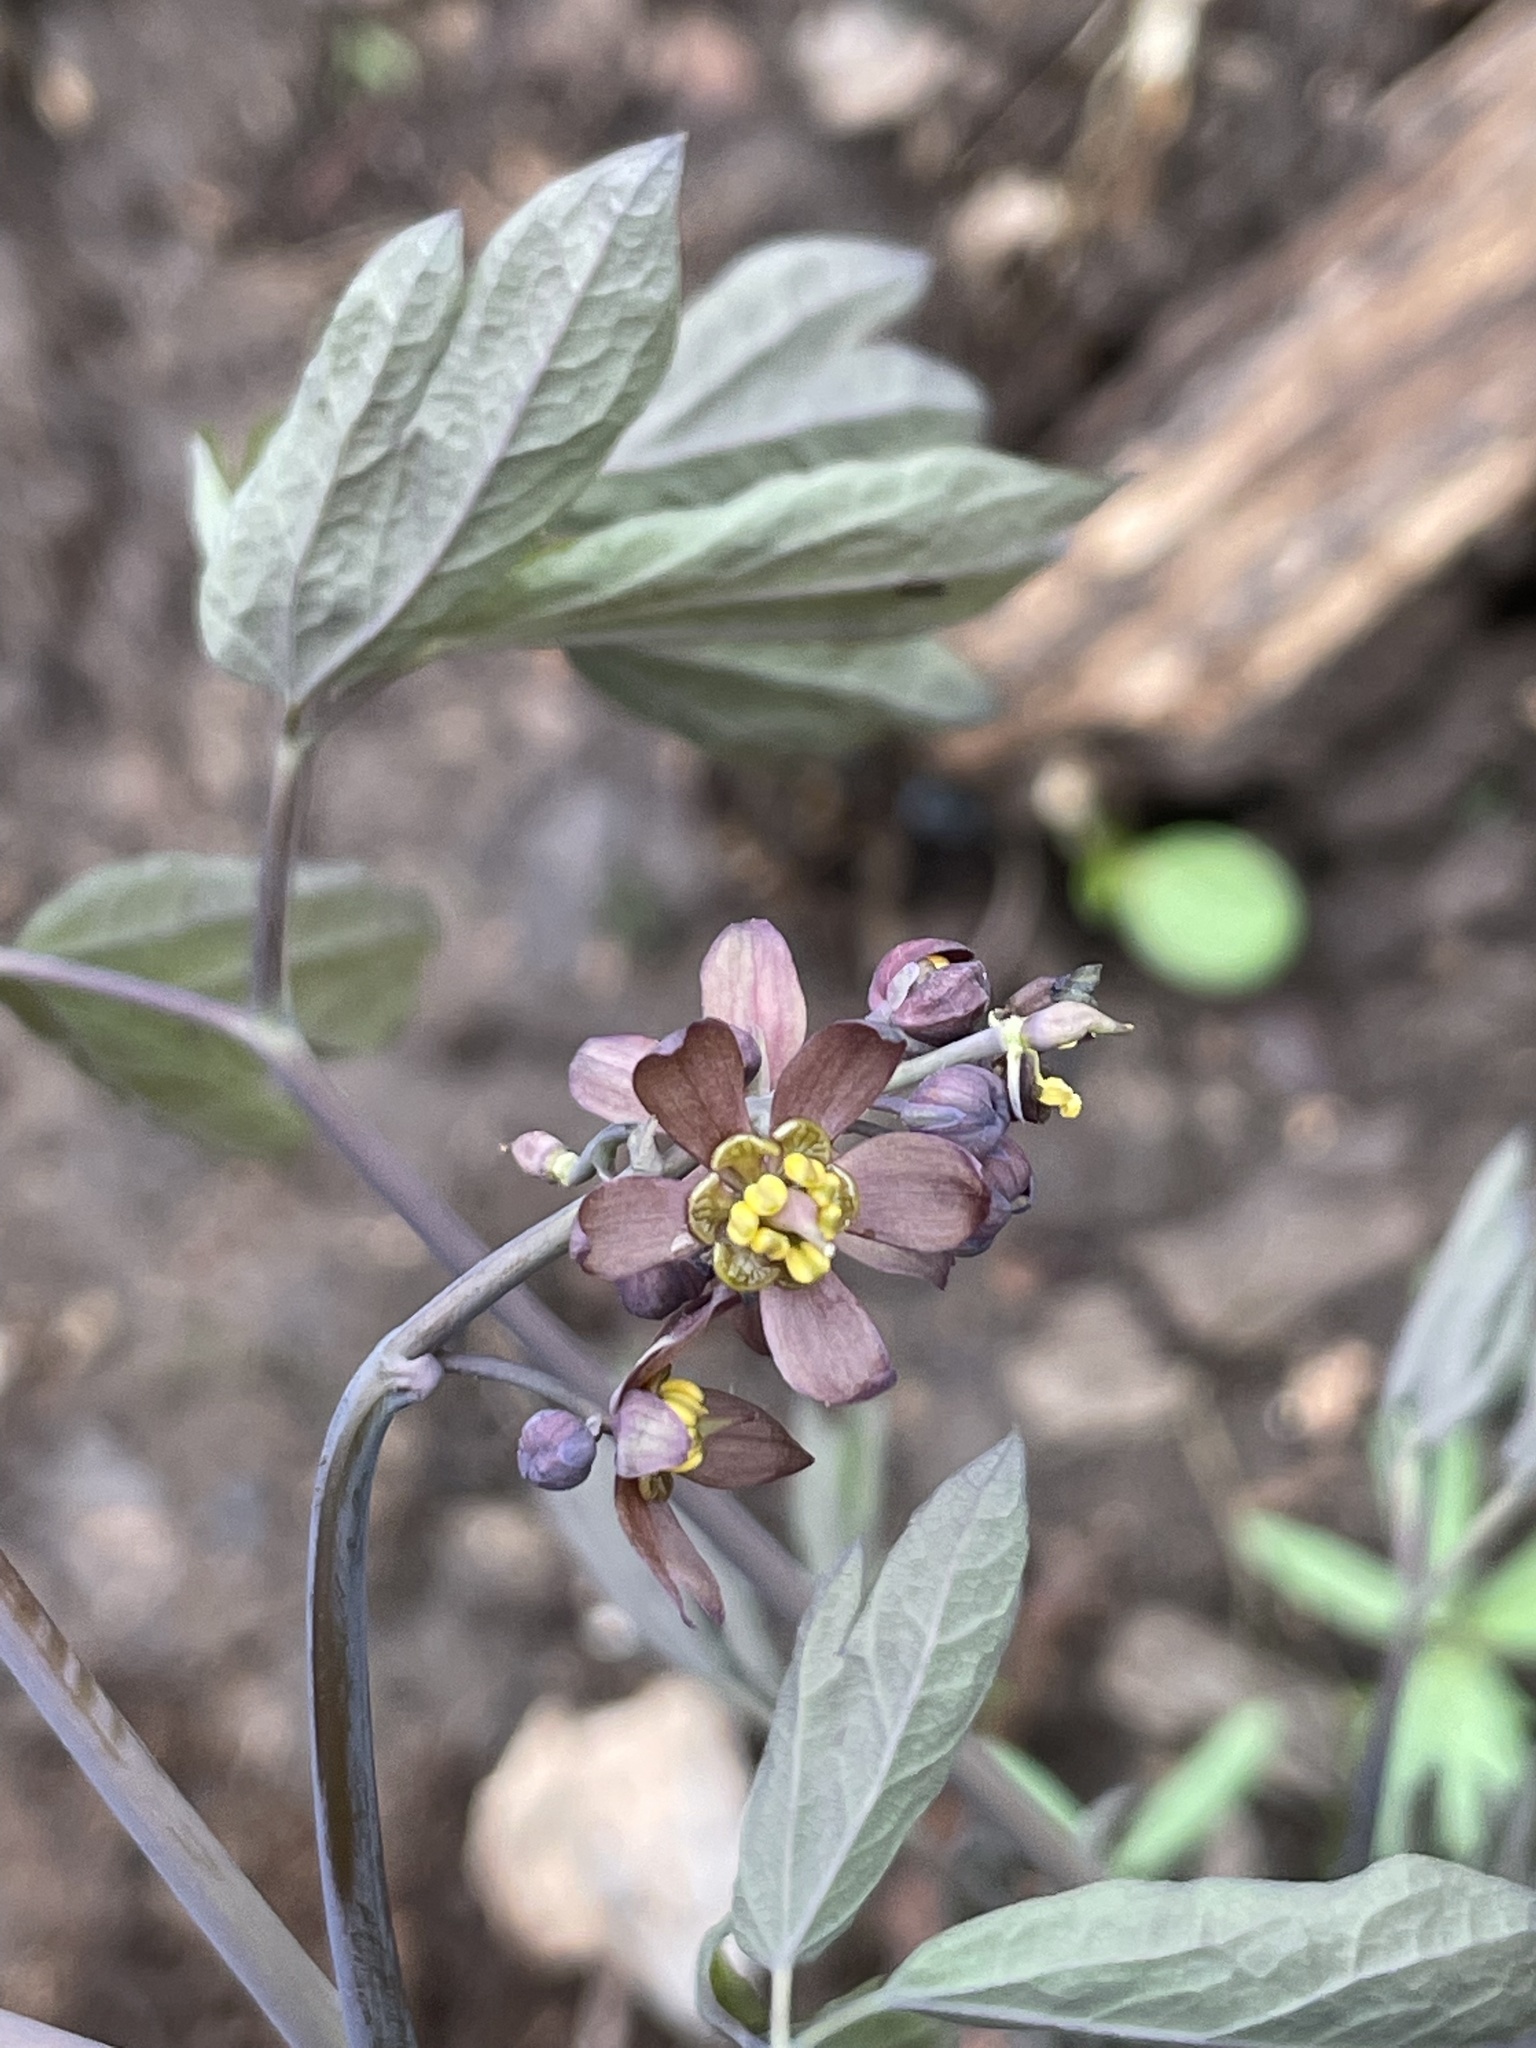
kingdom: Plantae
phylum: Tracheophyta
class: Magnoliopsida
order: Ranunculales
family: Berberidaceae
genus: Caulophyllum
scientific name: Caulophyllum thalictroides
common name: Blue cohosh
